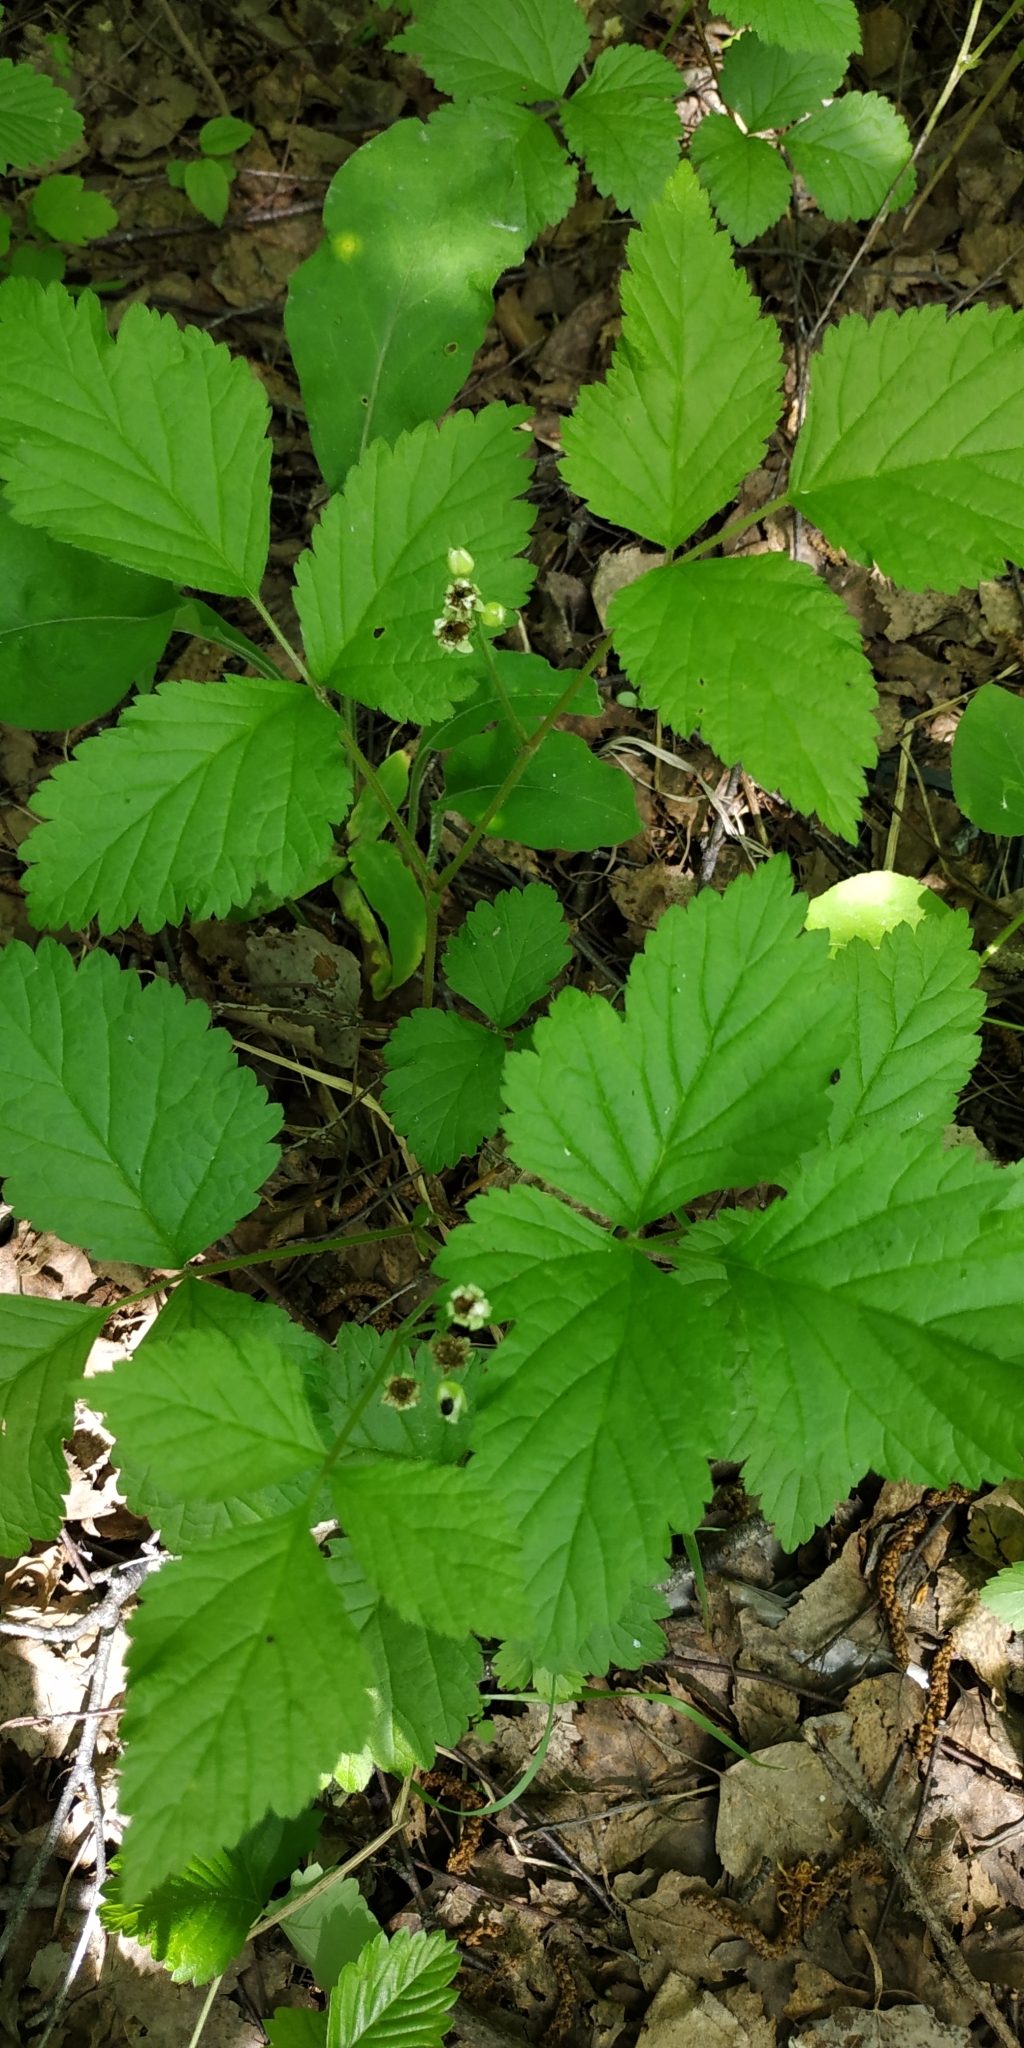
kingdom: Plantae
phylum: Tracheophyta
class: Magnoliopsida
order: Rosales
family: Rosaceae
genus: Rubus
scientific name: Rubus saxatilis
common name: Stone bramble
